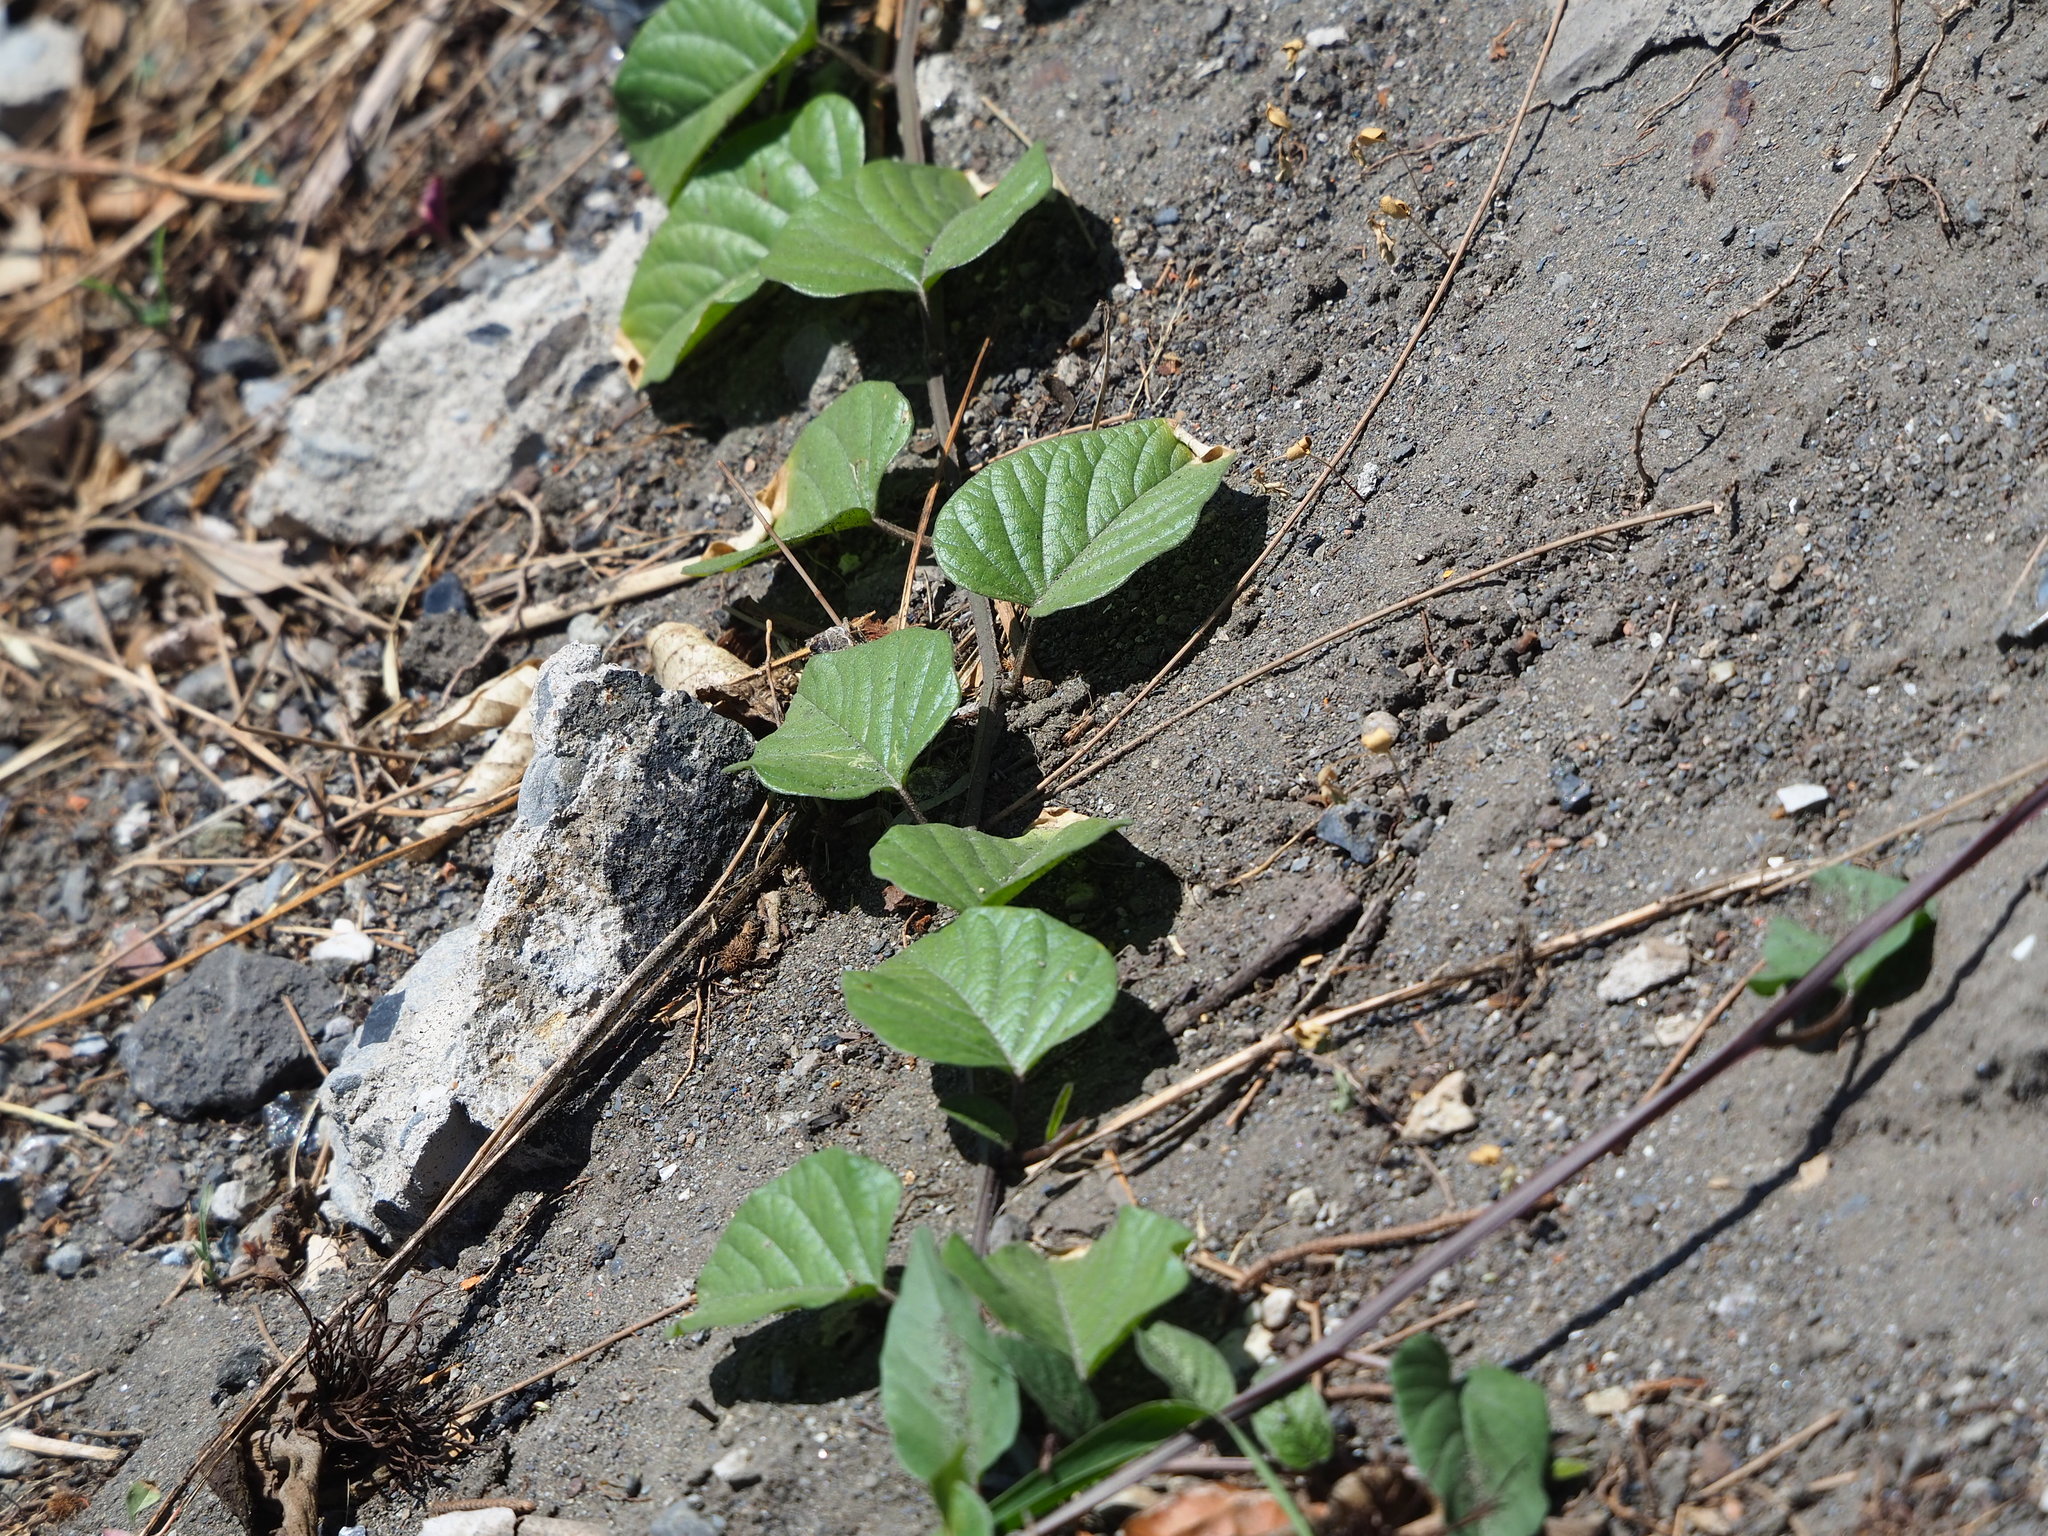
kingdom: Plantae
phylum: Tracheophyta
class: Magnoliopsida
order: Solanales
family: Convolvulaceae
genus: Operculina
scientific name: Operculina turpethum
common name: Transparent wood-rose
